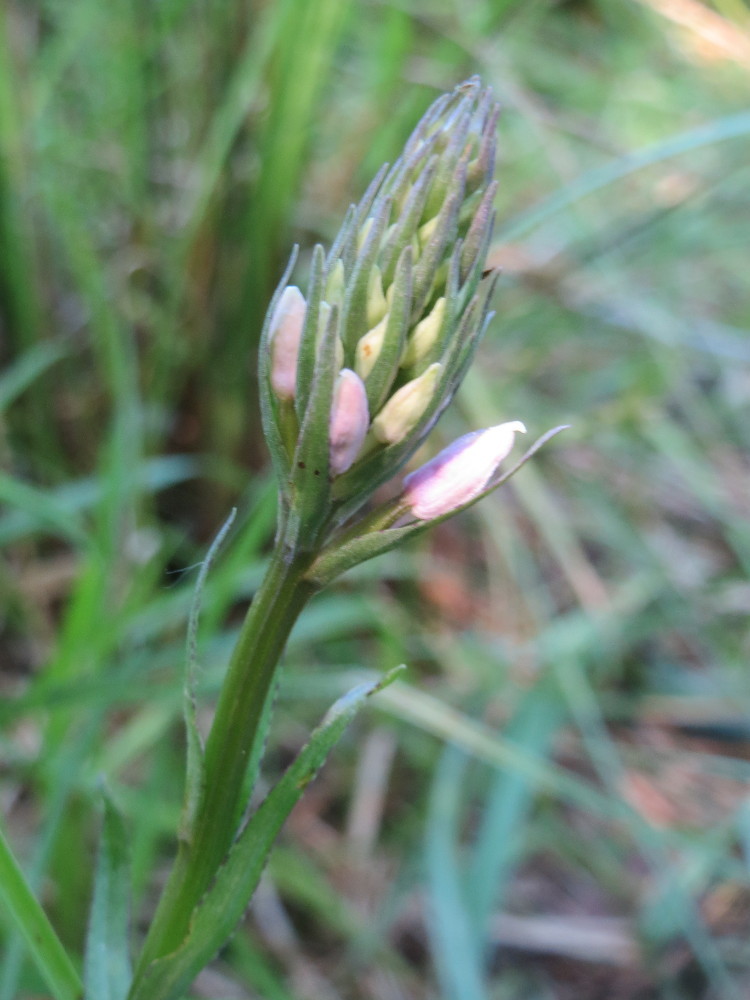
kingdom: Plantae
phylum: Tracheophyta
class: Liliopsida
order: Asparagales
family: Orchidaceae
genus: Dactylorhiza
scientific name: Dactylorhiza maculata
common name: Heath spotted-orchid
